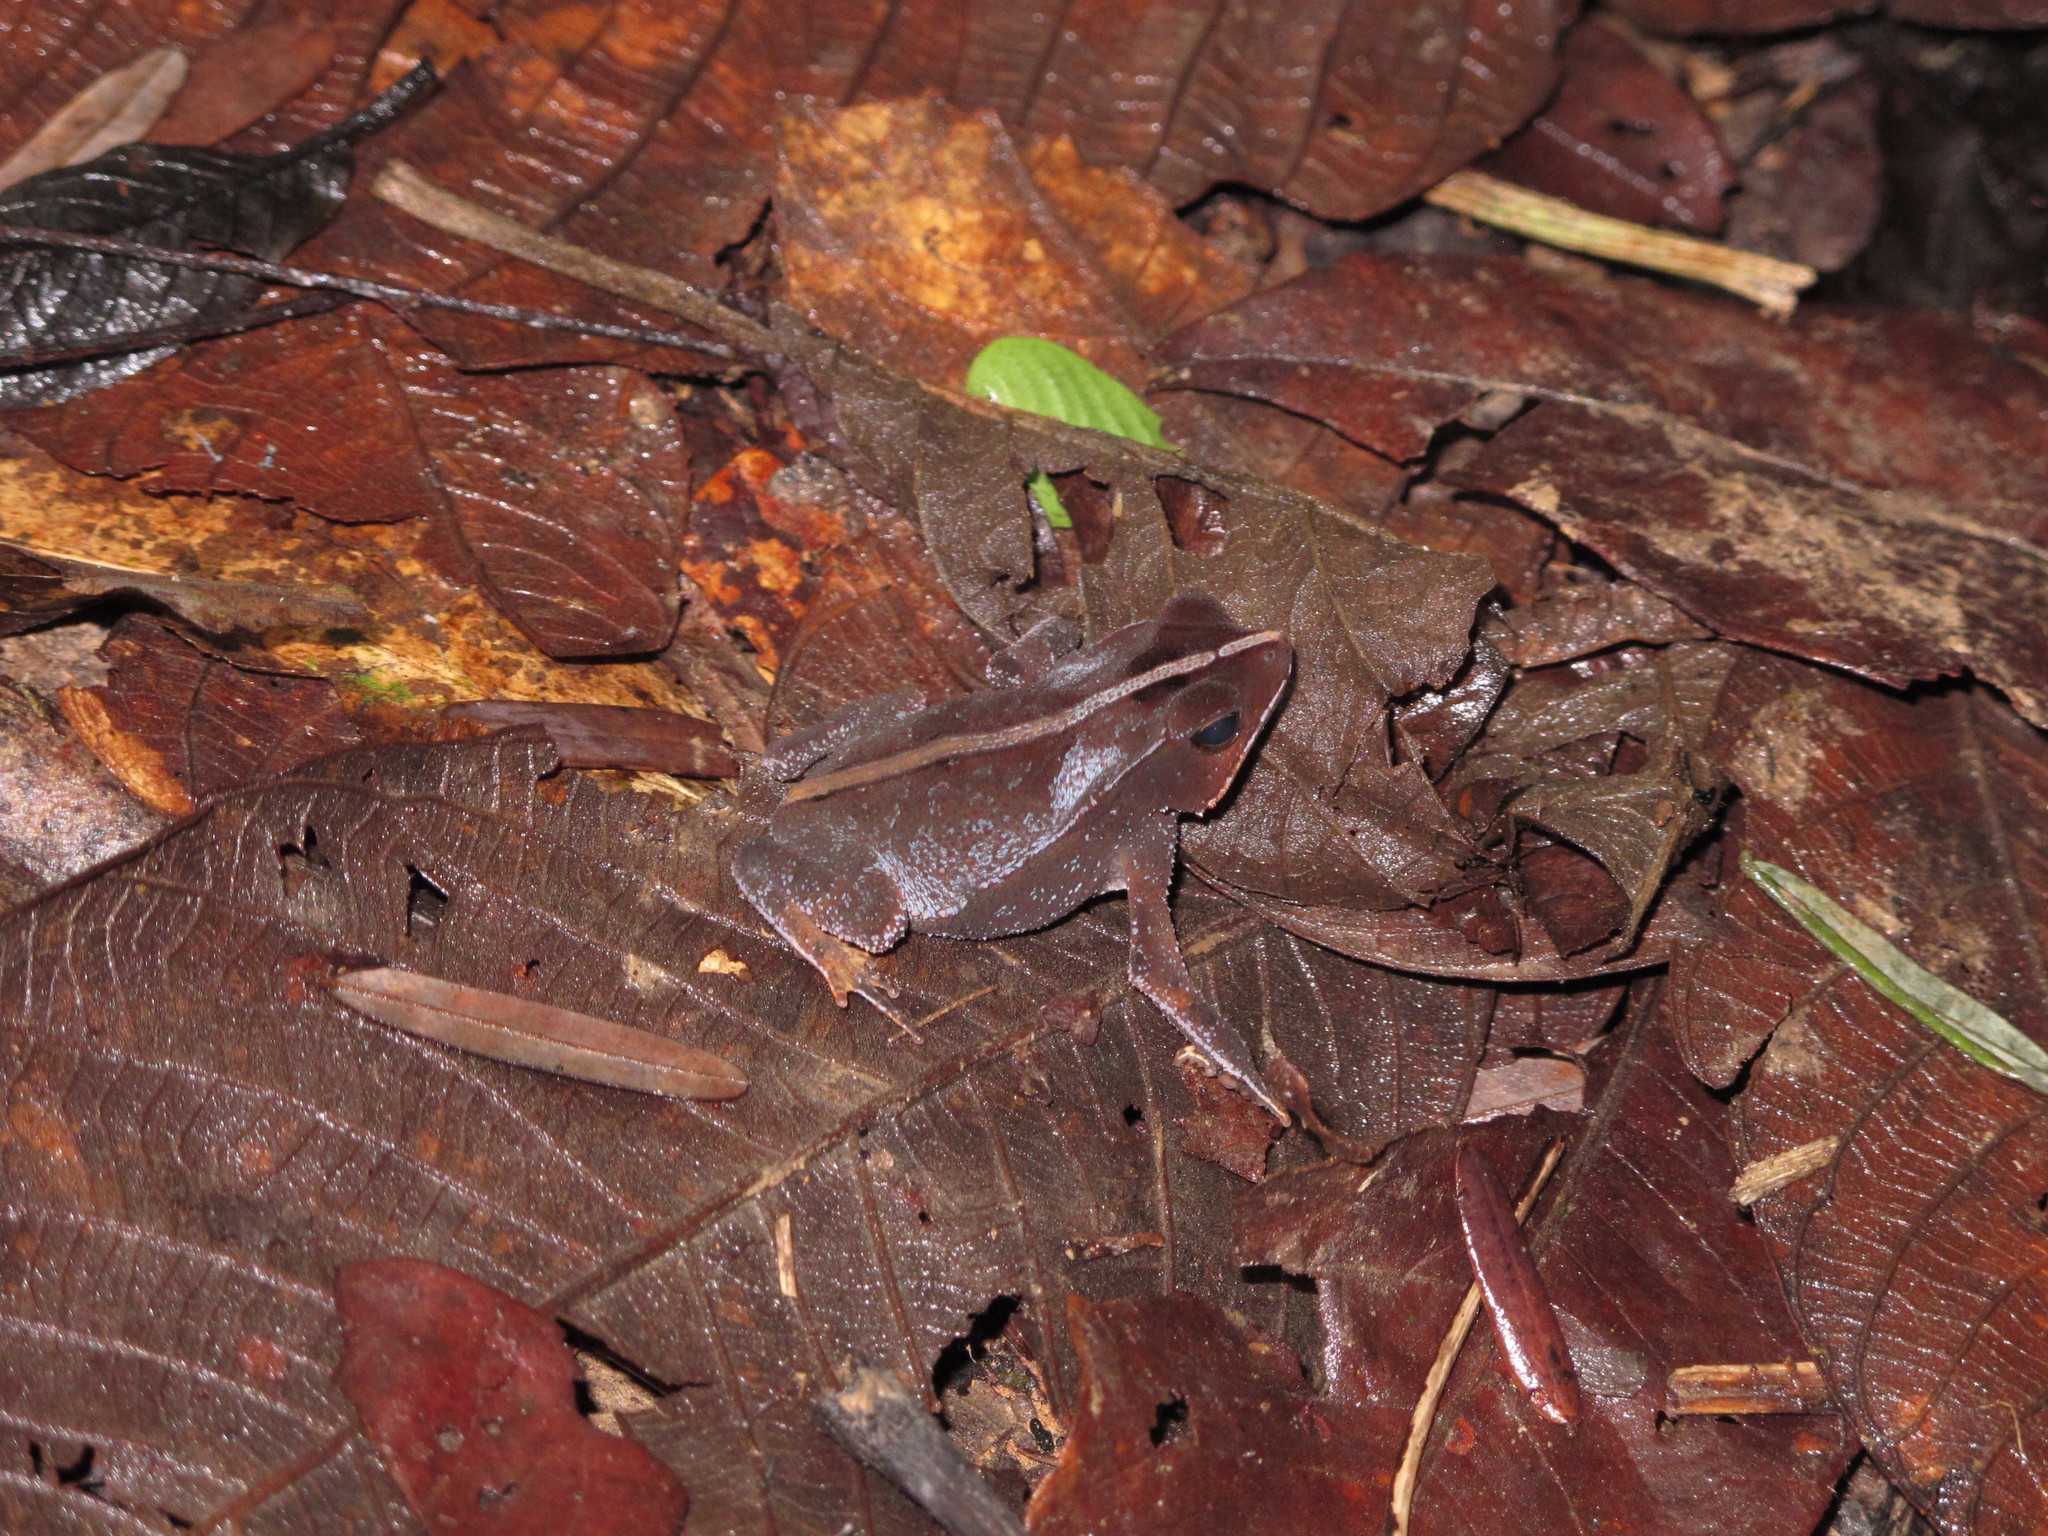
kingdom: Animalia
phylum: Chordata
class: Amphibia
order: Anura
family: Bufonidae
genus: Rhinella
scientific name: Rhinella margaritifera
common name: Mitred toad
